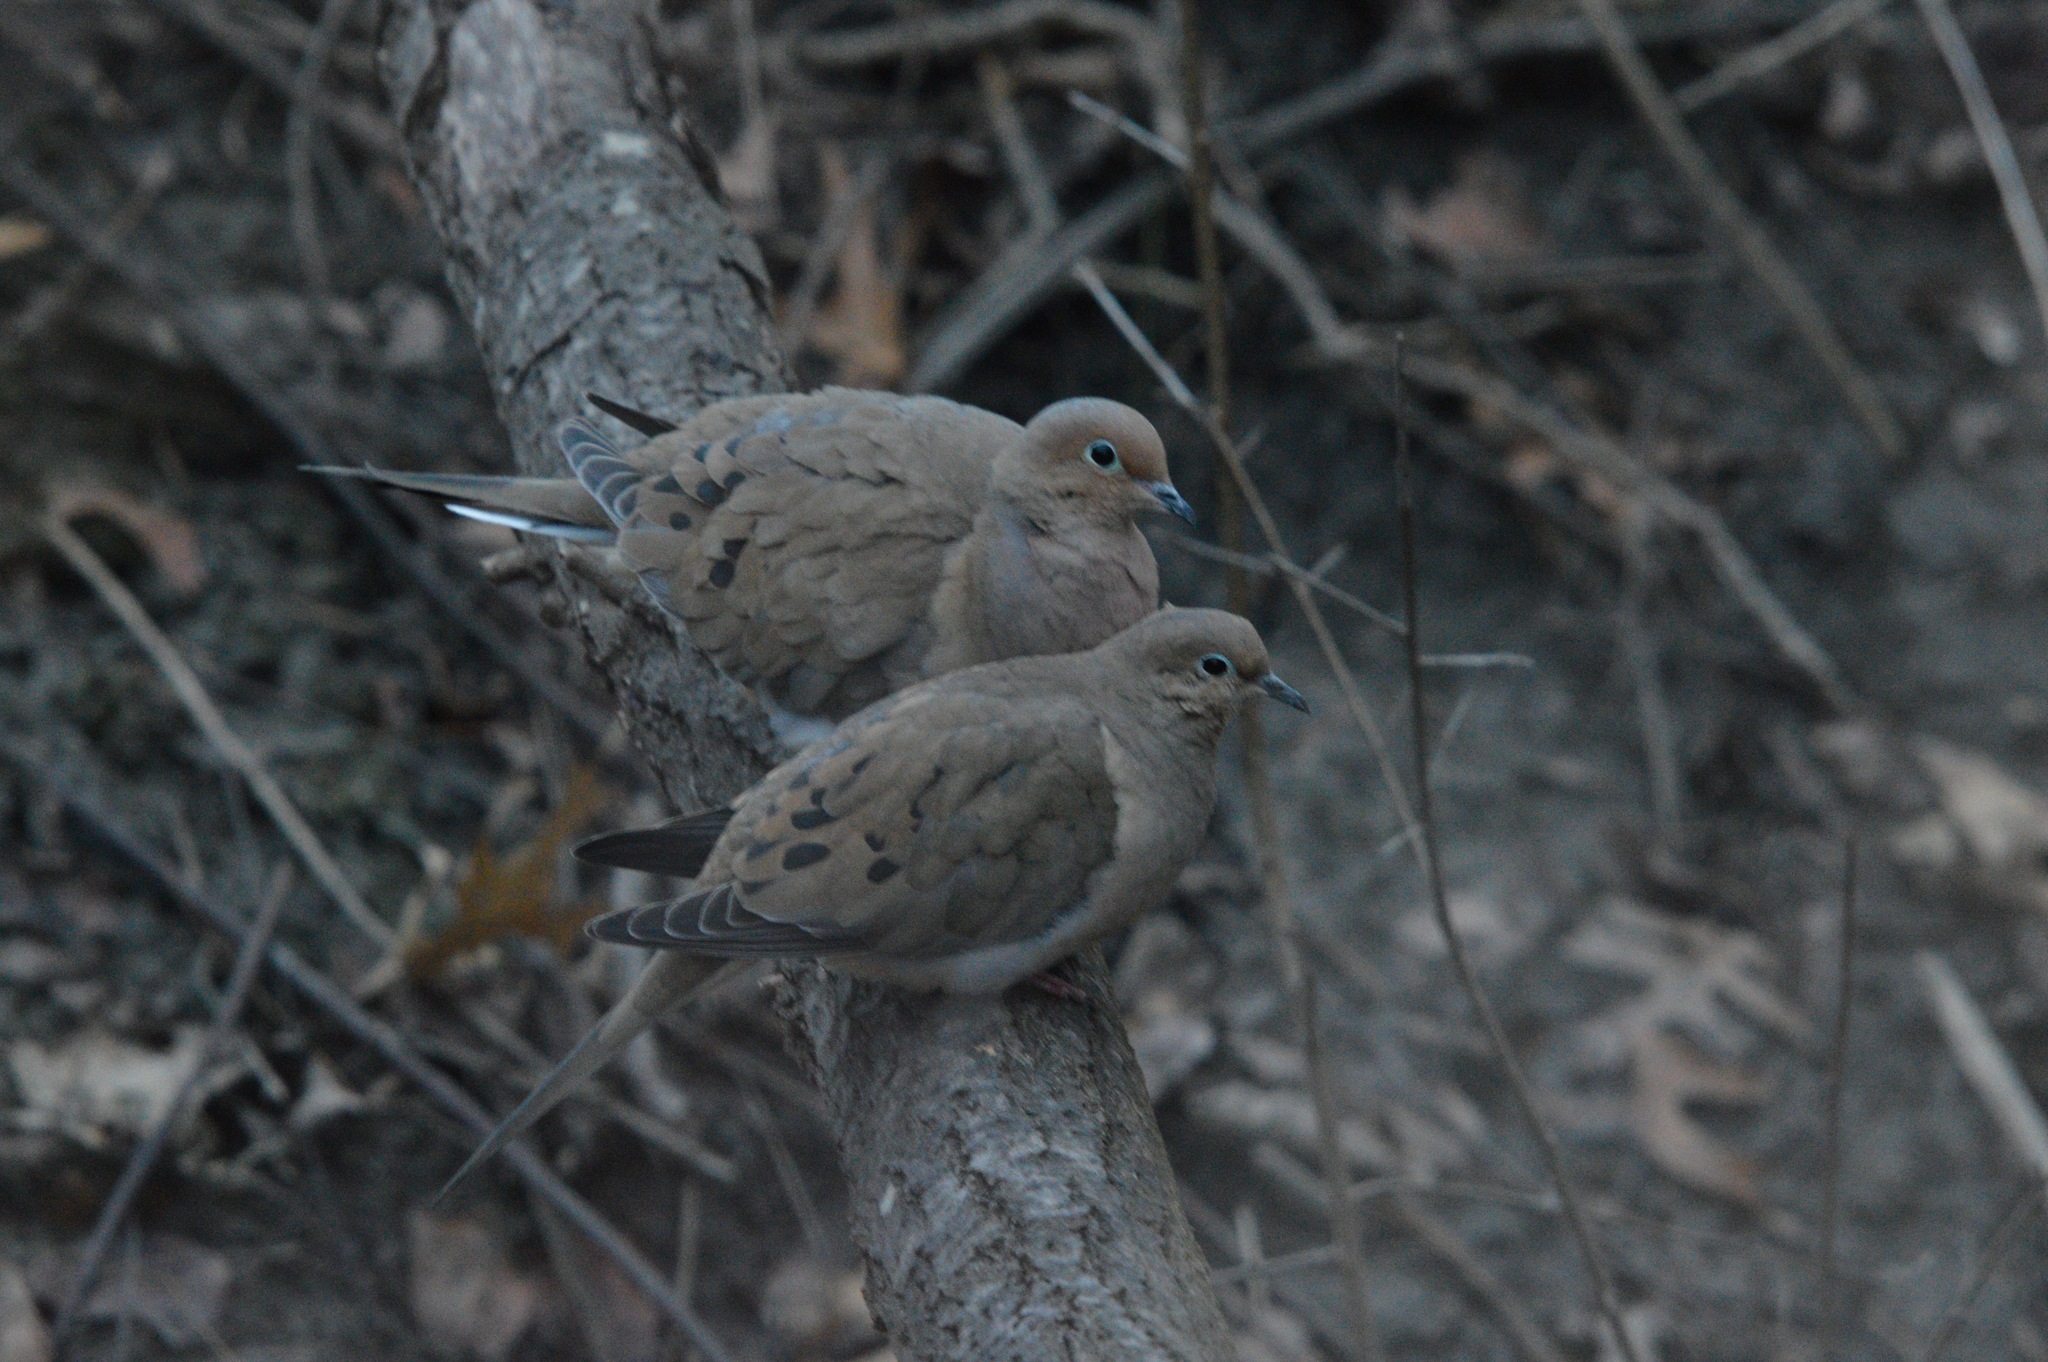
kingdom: Animalia
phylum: Chordata
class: Aves
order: Columbiformes
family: Columbidae
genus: Zenaida
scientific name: Zenaida macroura
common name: Mourning dove
